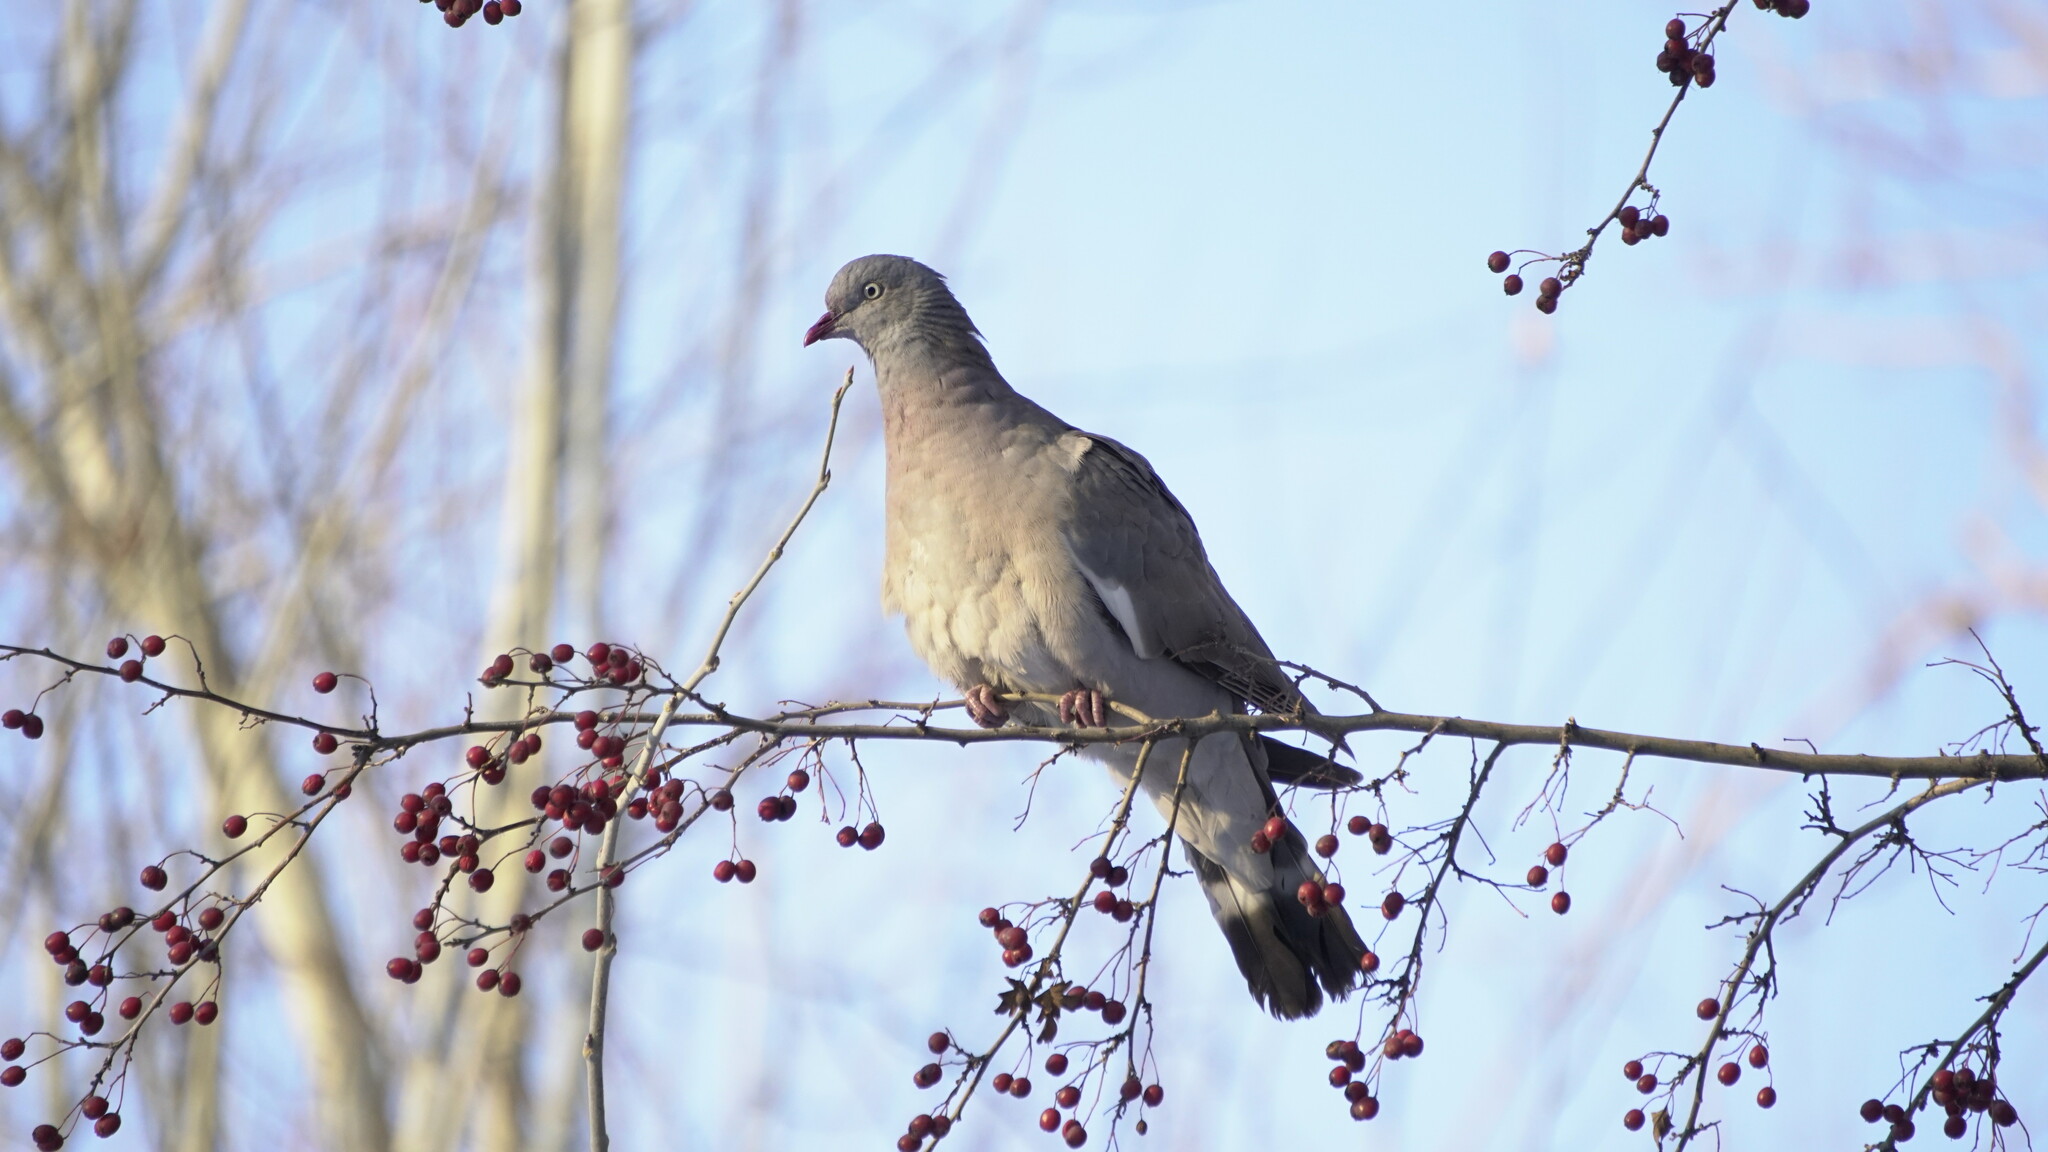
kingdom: Animalia
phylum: Chordata
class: Aves
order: Columbiformes
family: Columbidae
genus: Columba
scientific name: Columba palumbus
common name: Common wood pigeon
